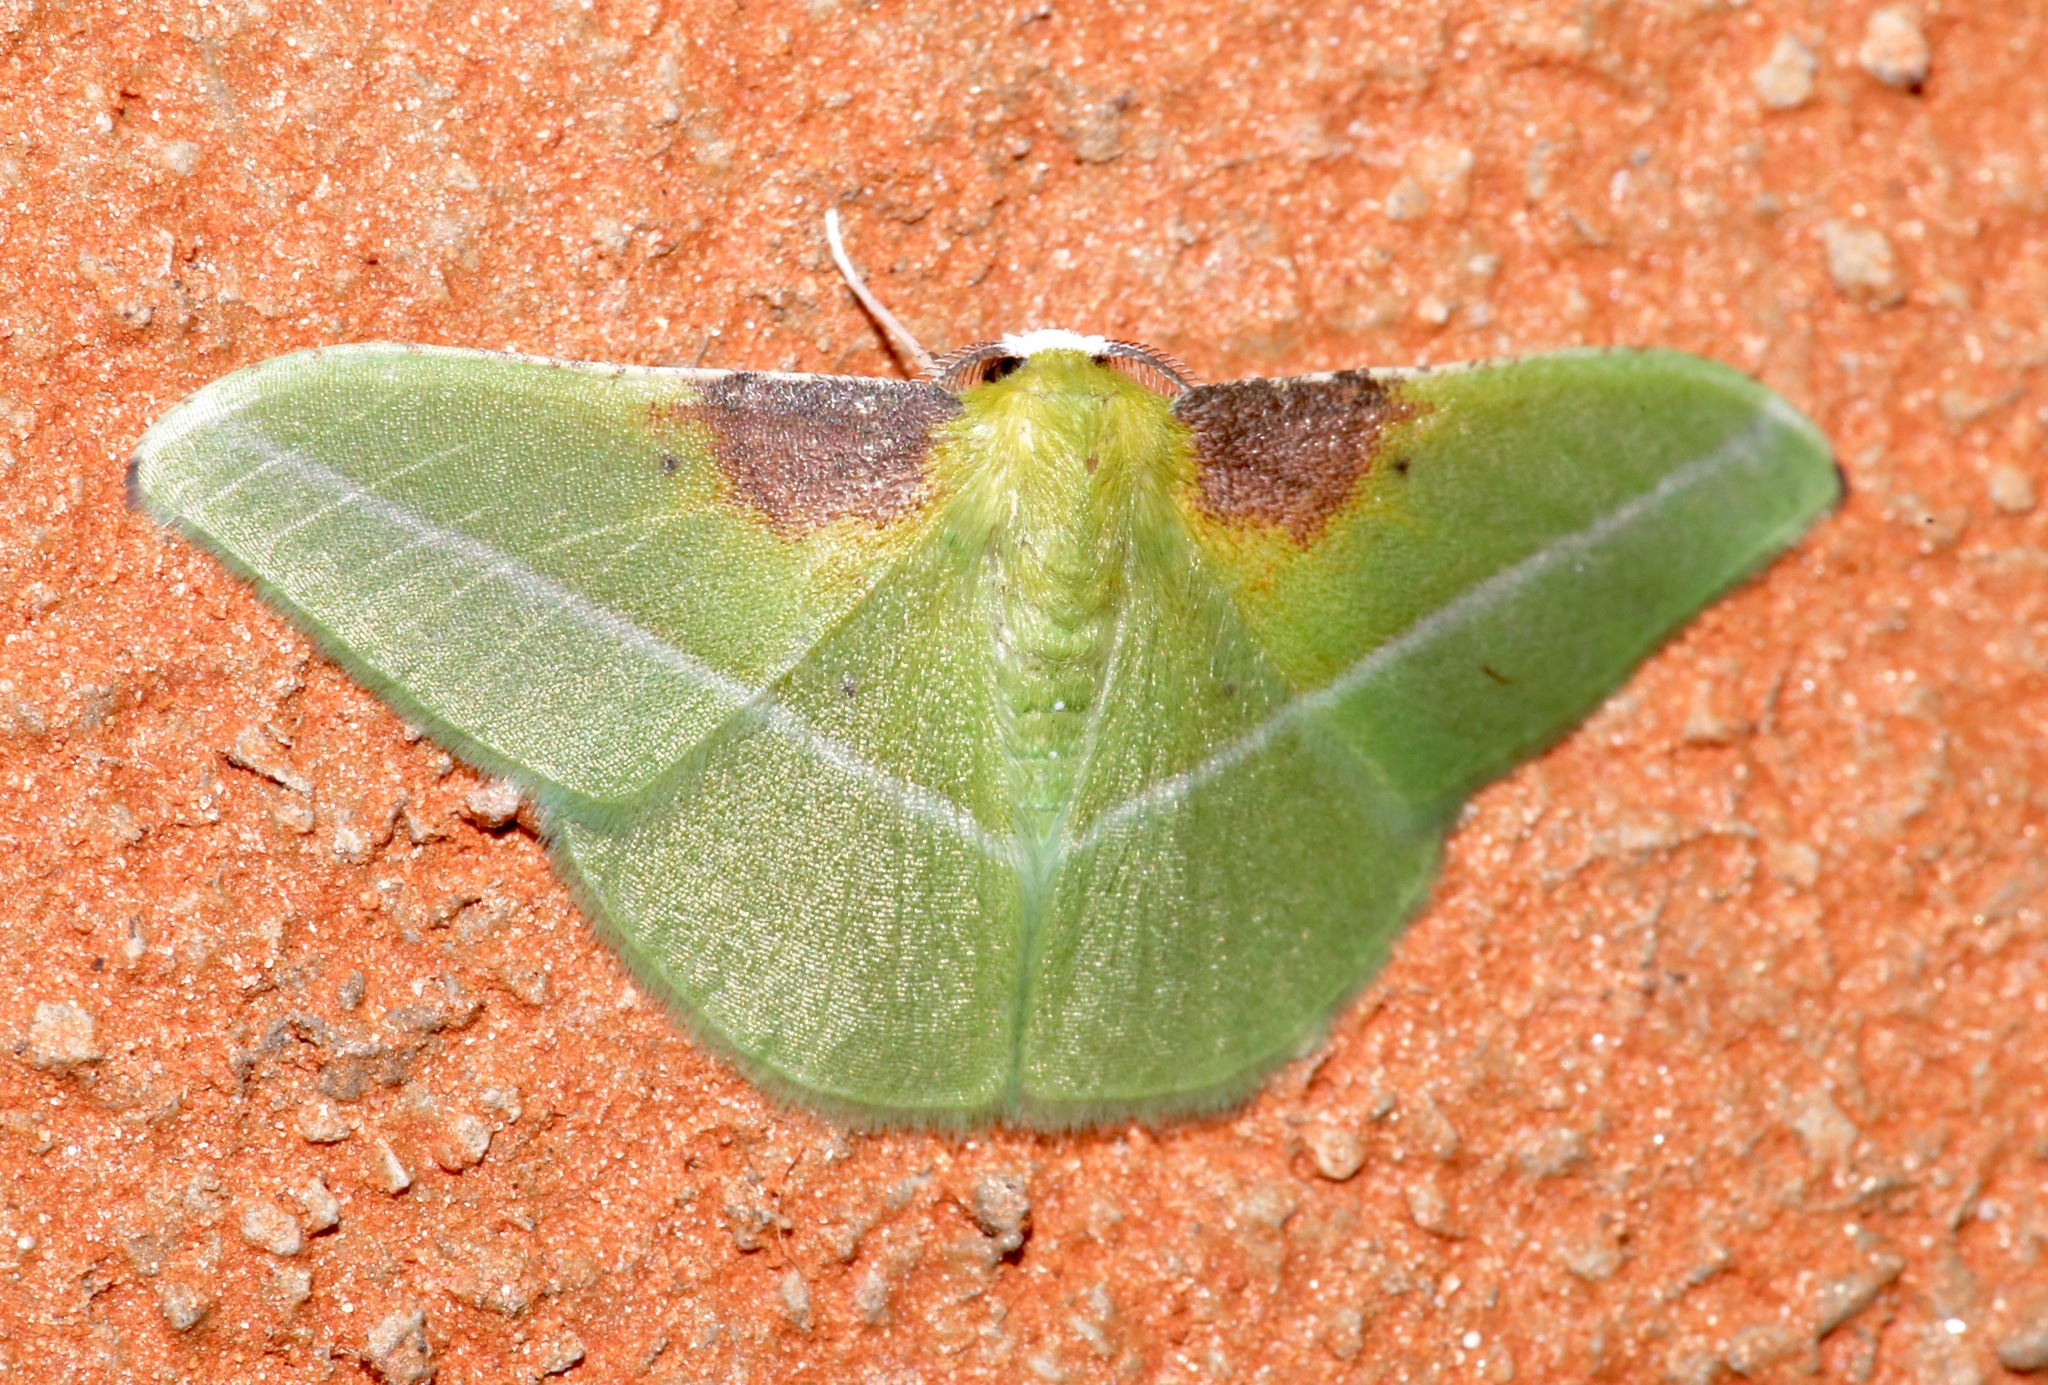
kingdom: Animalia
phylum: Arthropoda
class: Insecta
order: Lepidoptera
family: Geometridae
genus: Tachyphyle
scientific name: Tachyphyle basiplaga
